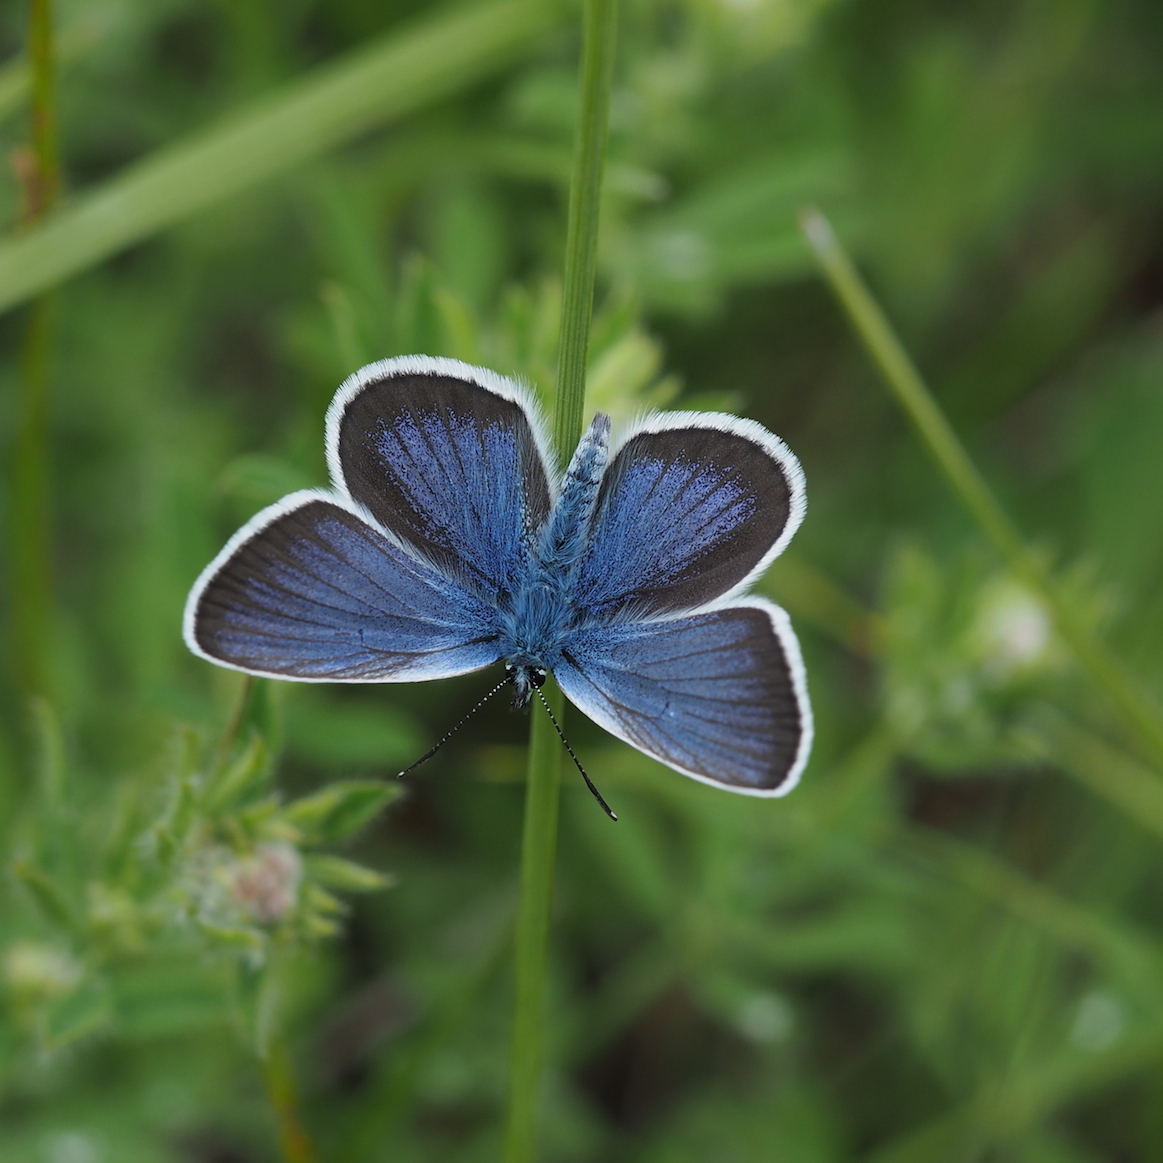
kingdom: Animalia
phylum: Arthropoda
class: Insecta
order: Lepidoptera
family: Lycaenidae
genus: Plebejus
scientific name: Plebejus argus
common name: Silver-studded blue
